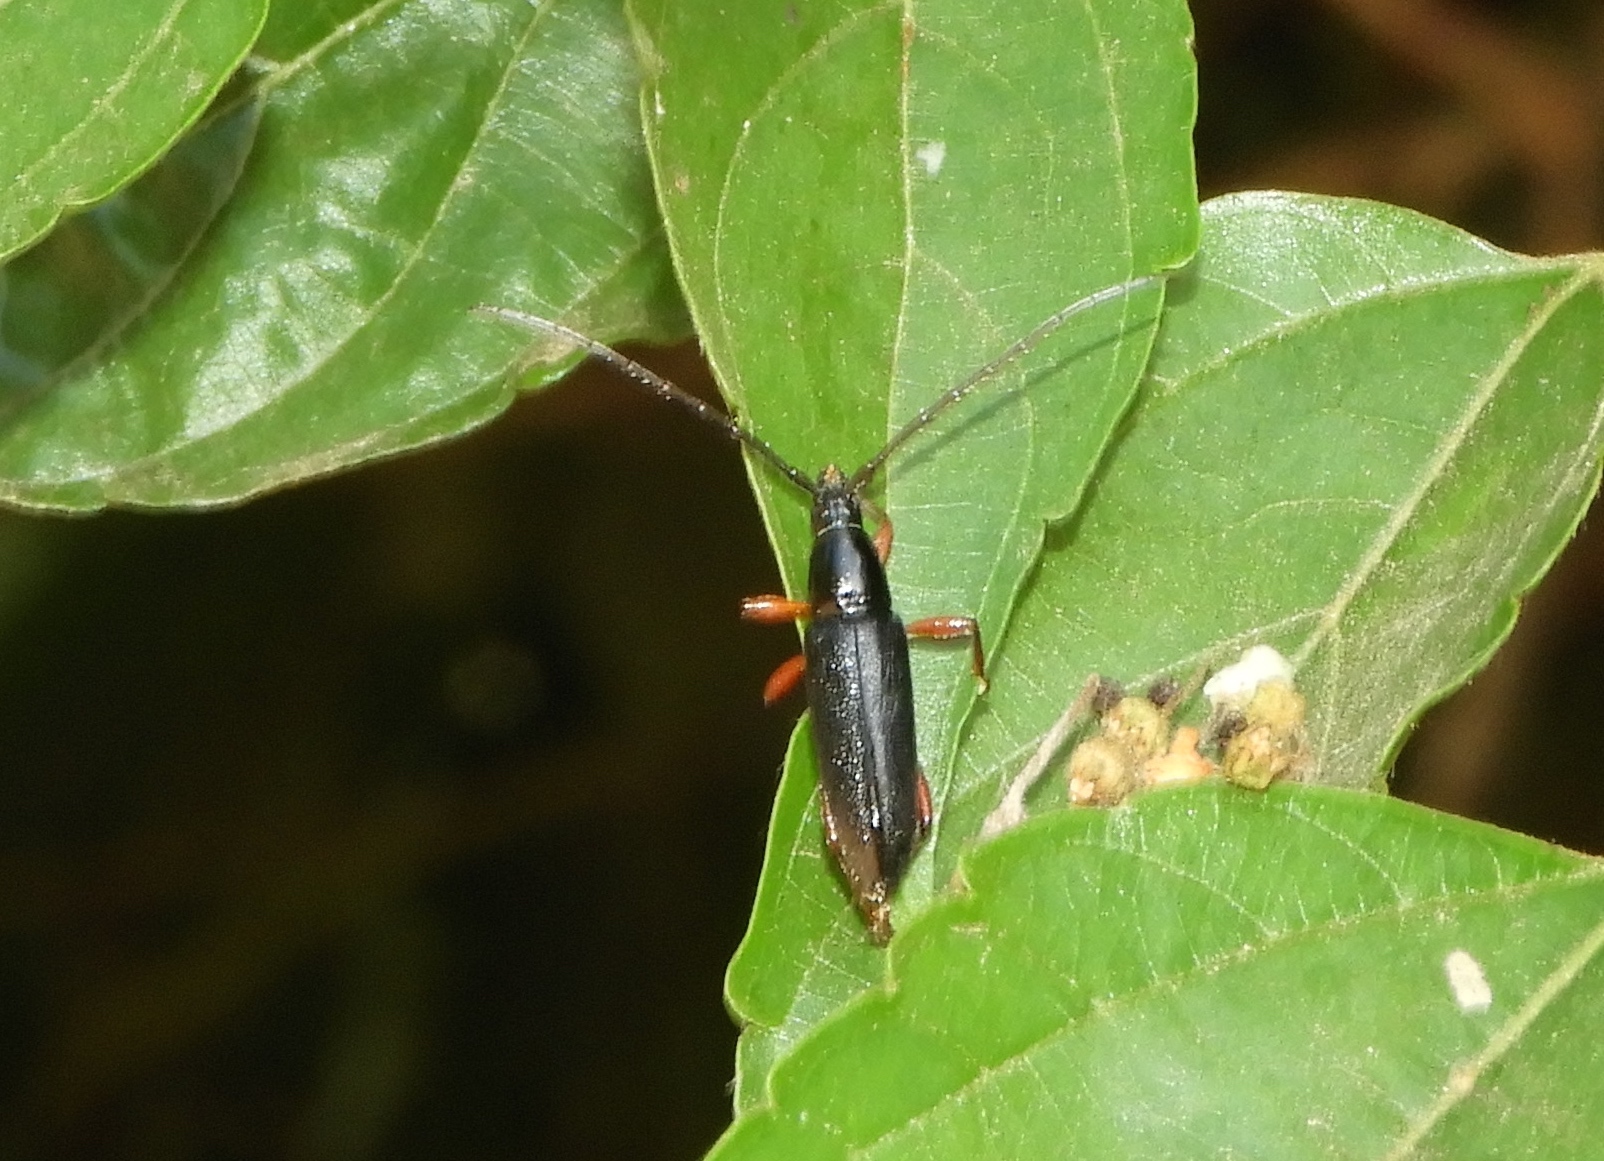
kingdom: Animalia
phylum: Arthropoda
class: Insecta
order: Coleoptera
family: Cerambycidae
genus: Stenosphenus
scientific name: Stenosphenus rufipes
